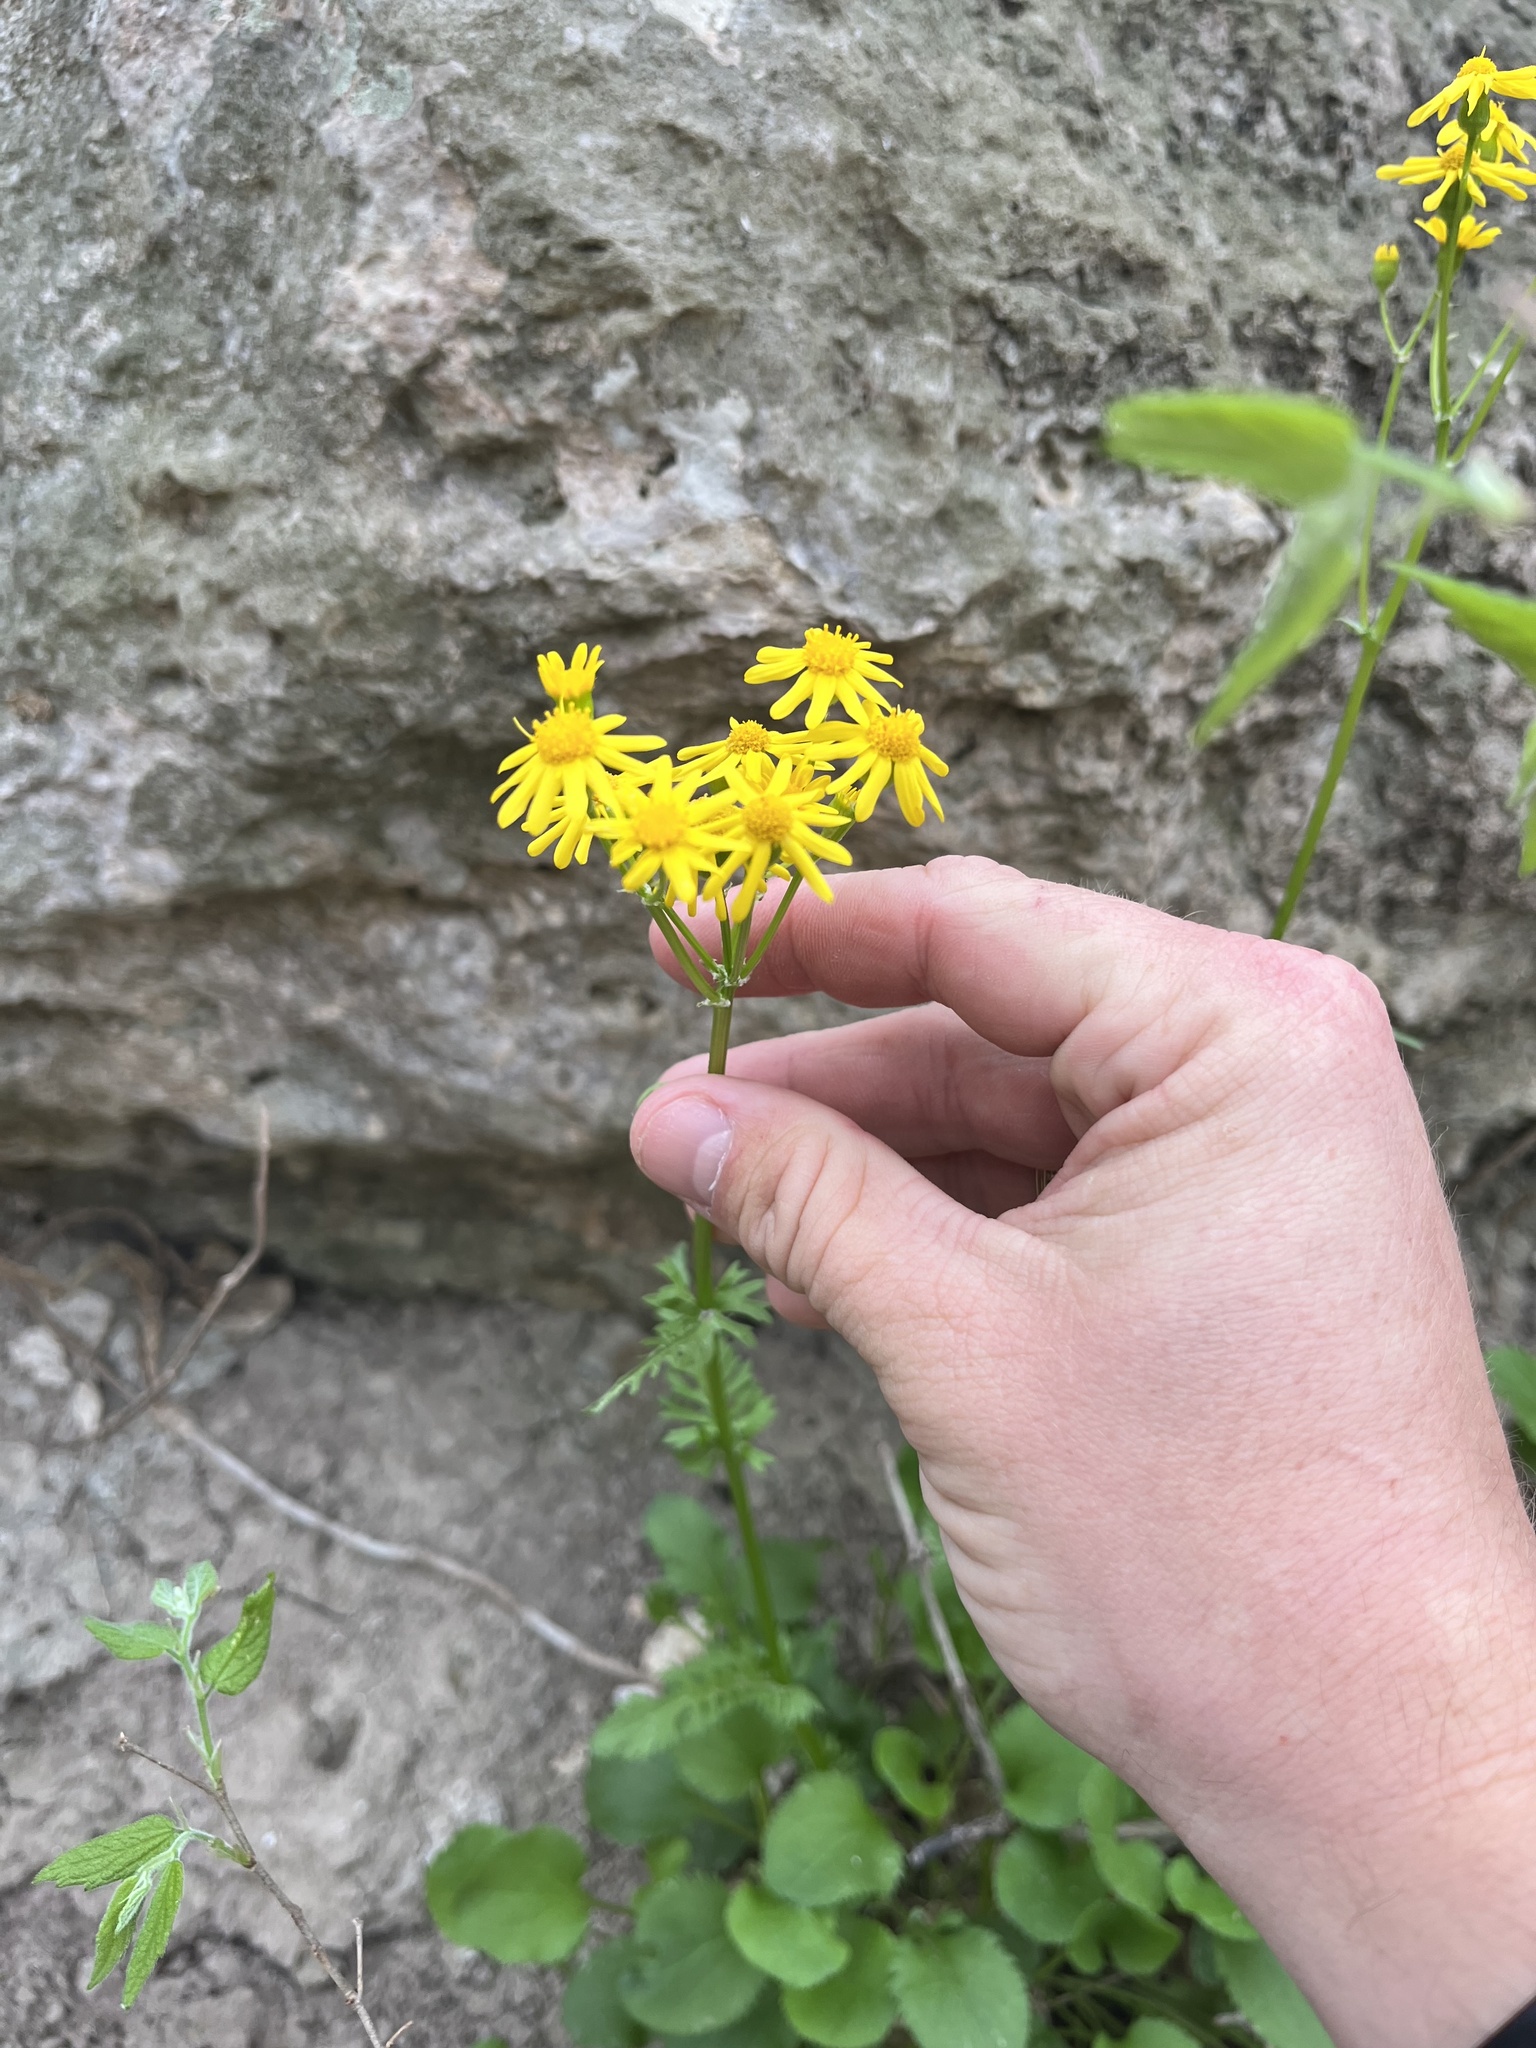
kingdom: Plantae
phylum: Tracheophyta
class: Magnoliopsida
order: Asterales
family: Asteraceae
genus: Packera
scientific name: Packera obovata
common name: Round-leaf ragwort
